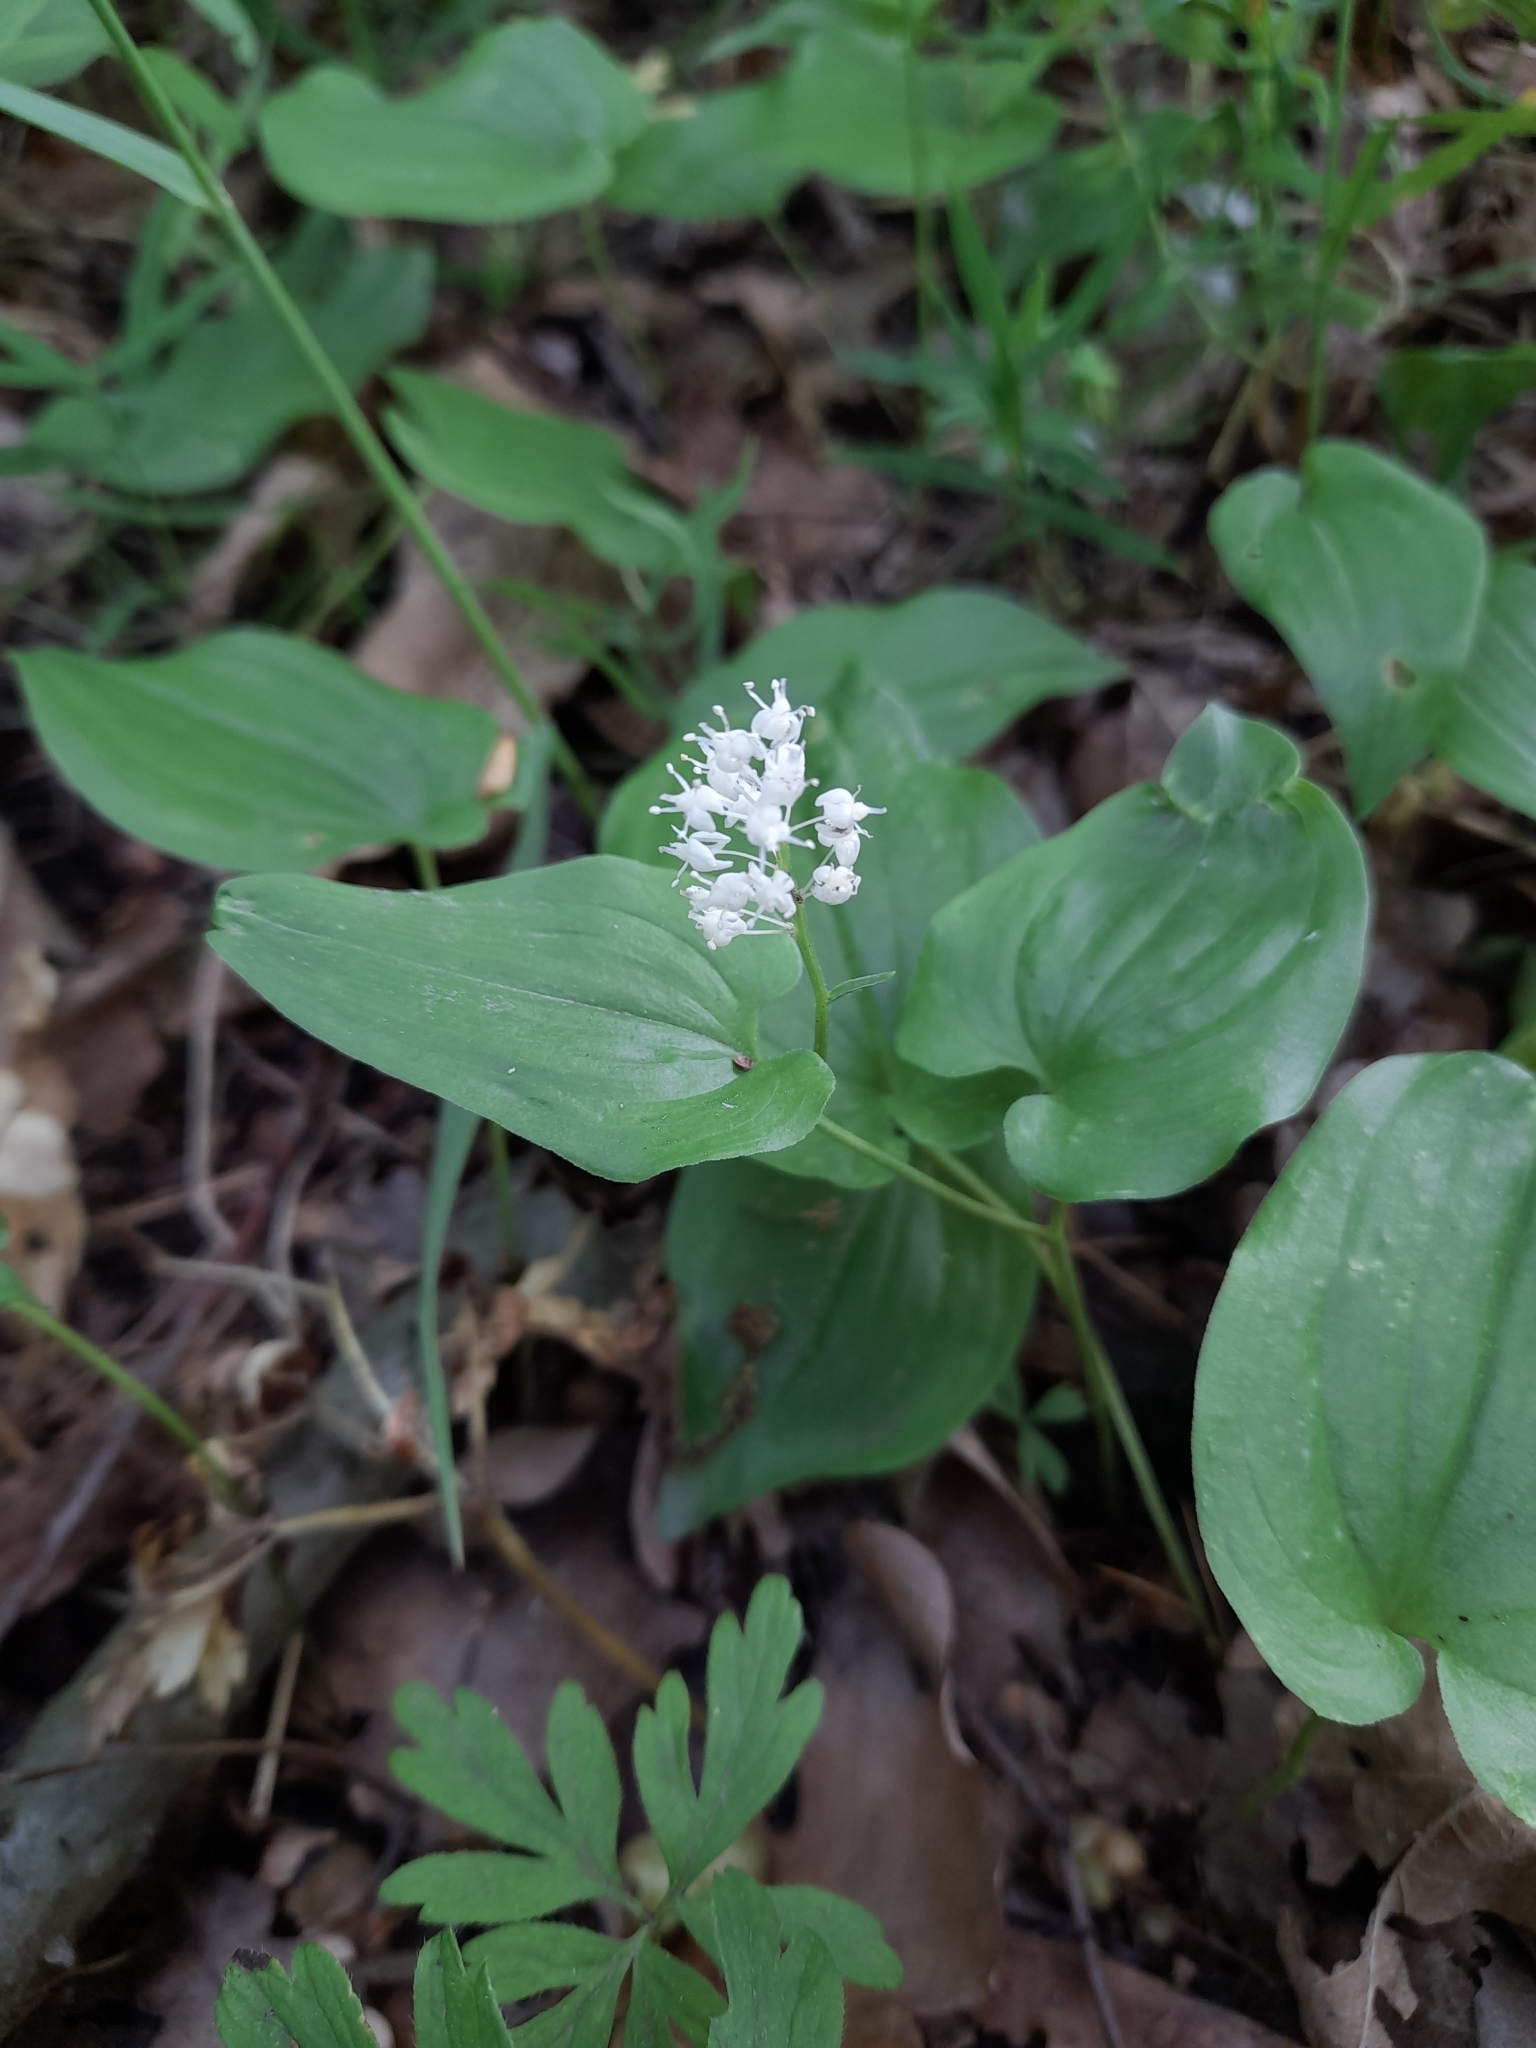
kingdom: Plantae
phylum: Tracheophyta
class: Liliopsida
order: Asparagales
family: Asparagaceae
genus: Maianthemum
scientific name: Maianthemum bifolium
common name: May lily
